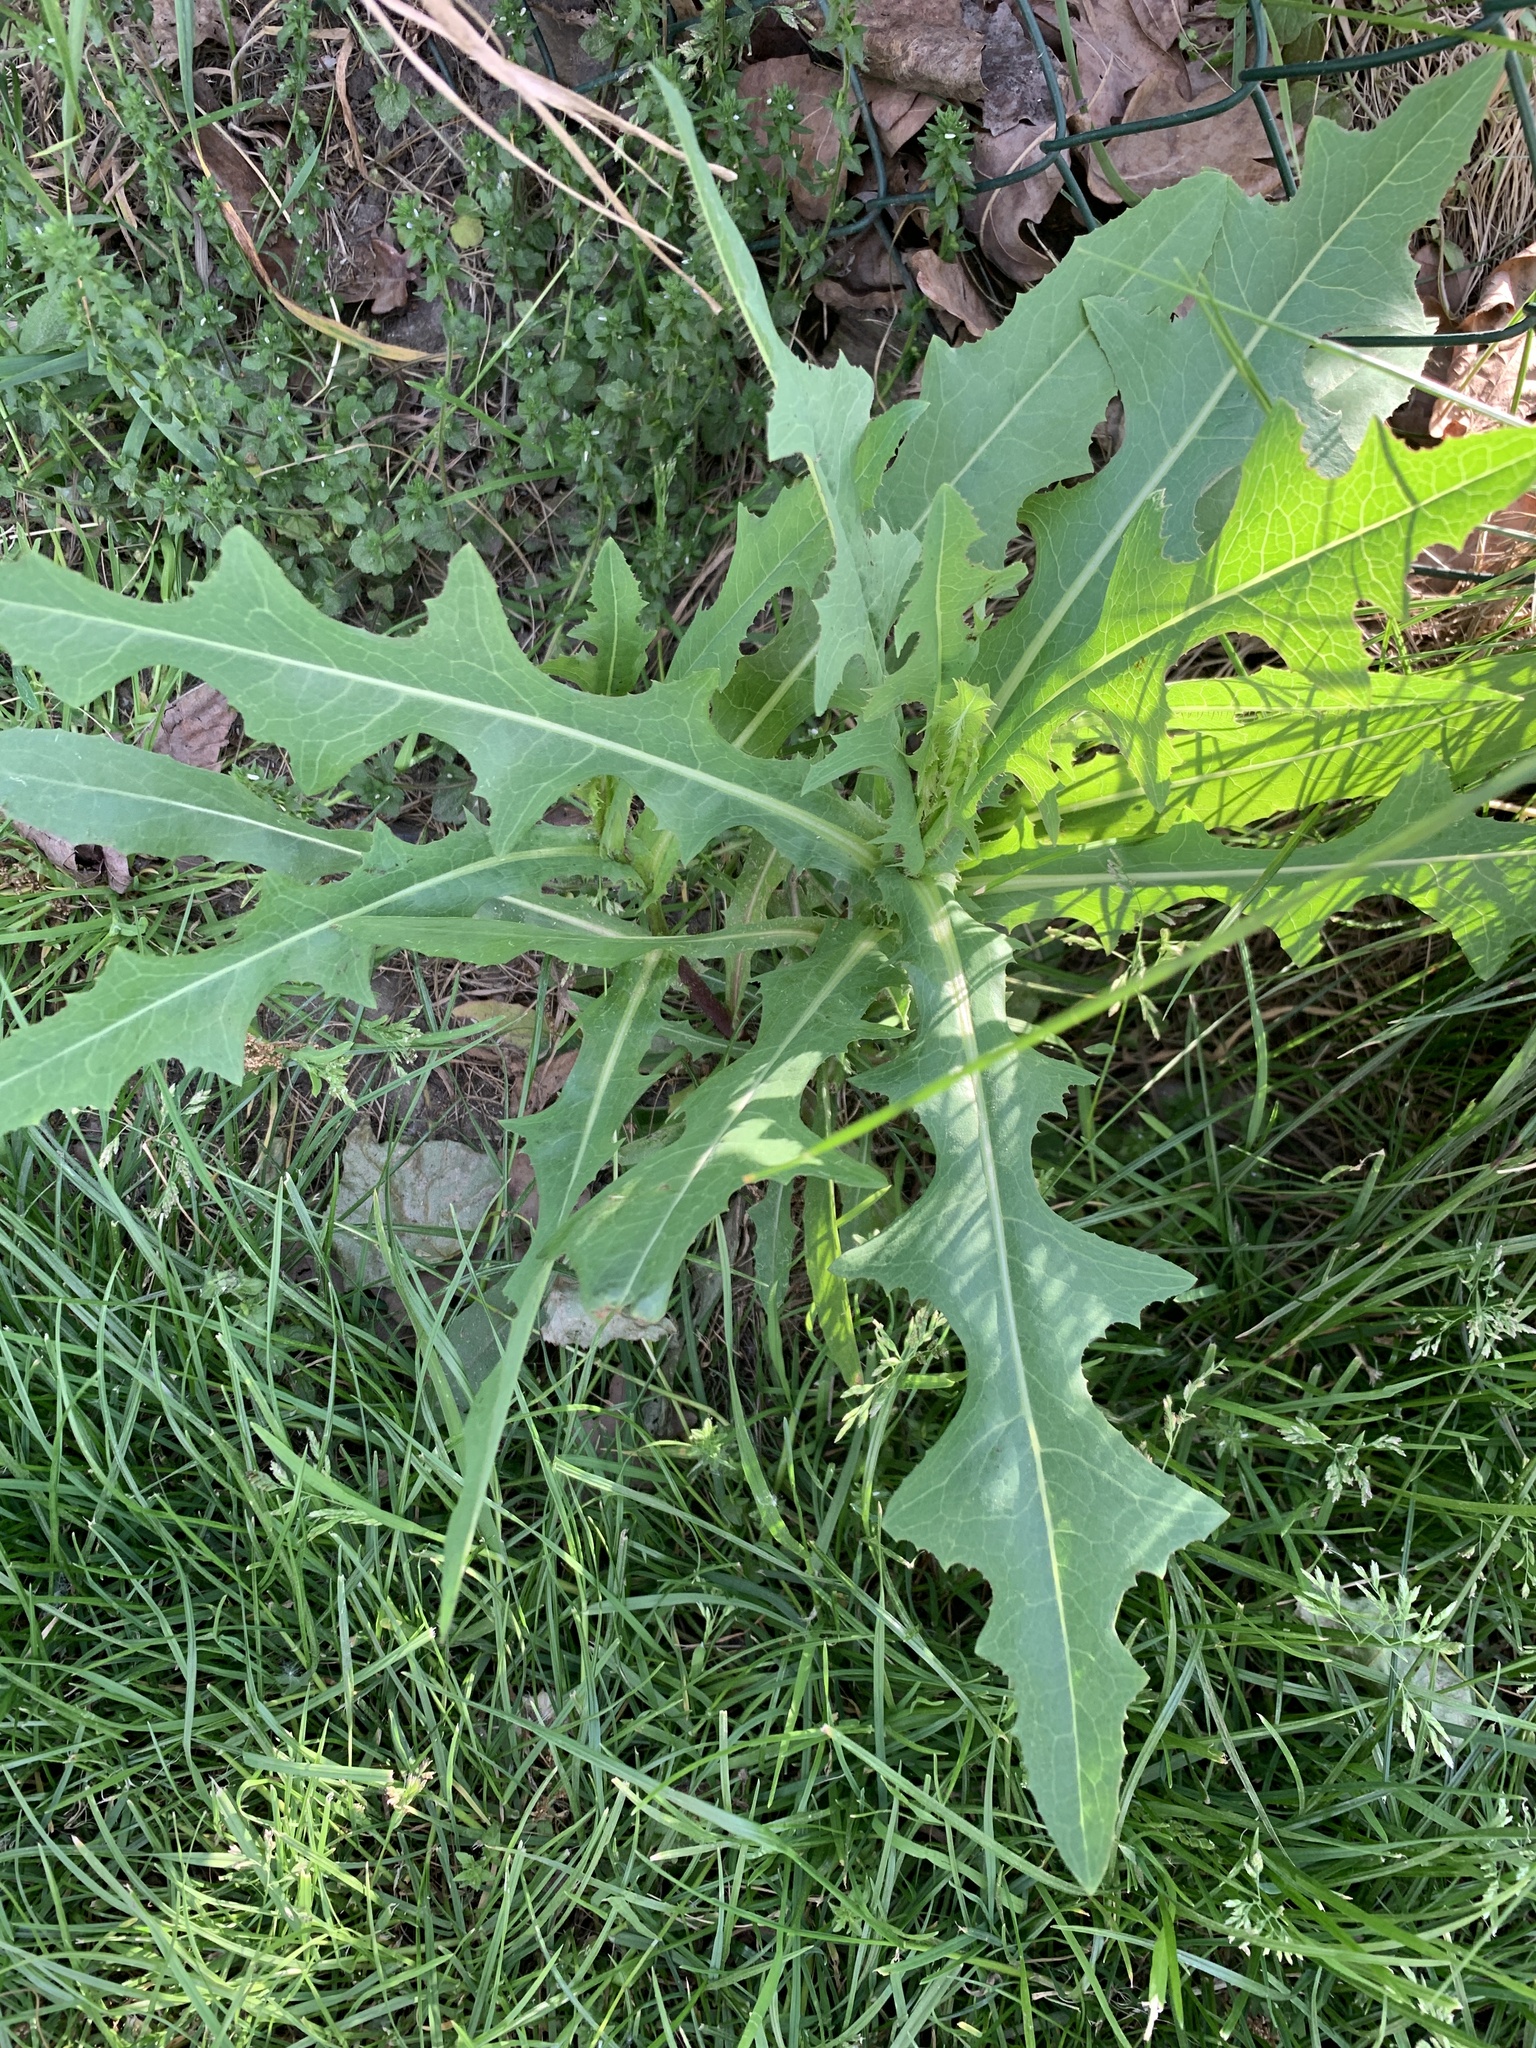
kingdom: Plantae
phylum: Tracheophyta
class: Magnoliopsida
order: Asterales
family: Asteraceae
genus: Lactuca
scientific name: Lactuca serriola
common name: Prickly lettuce
